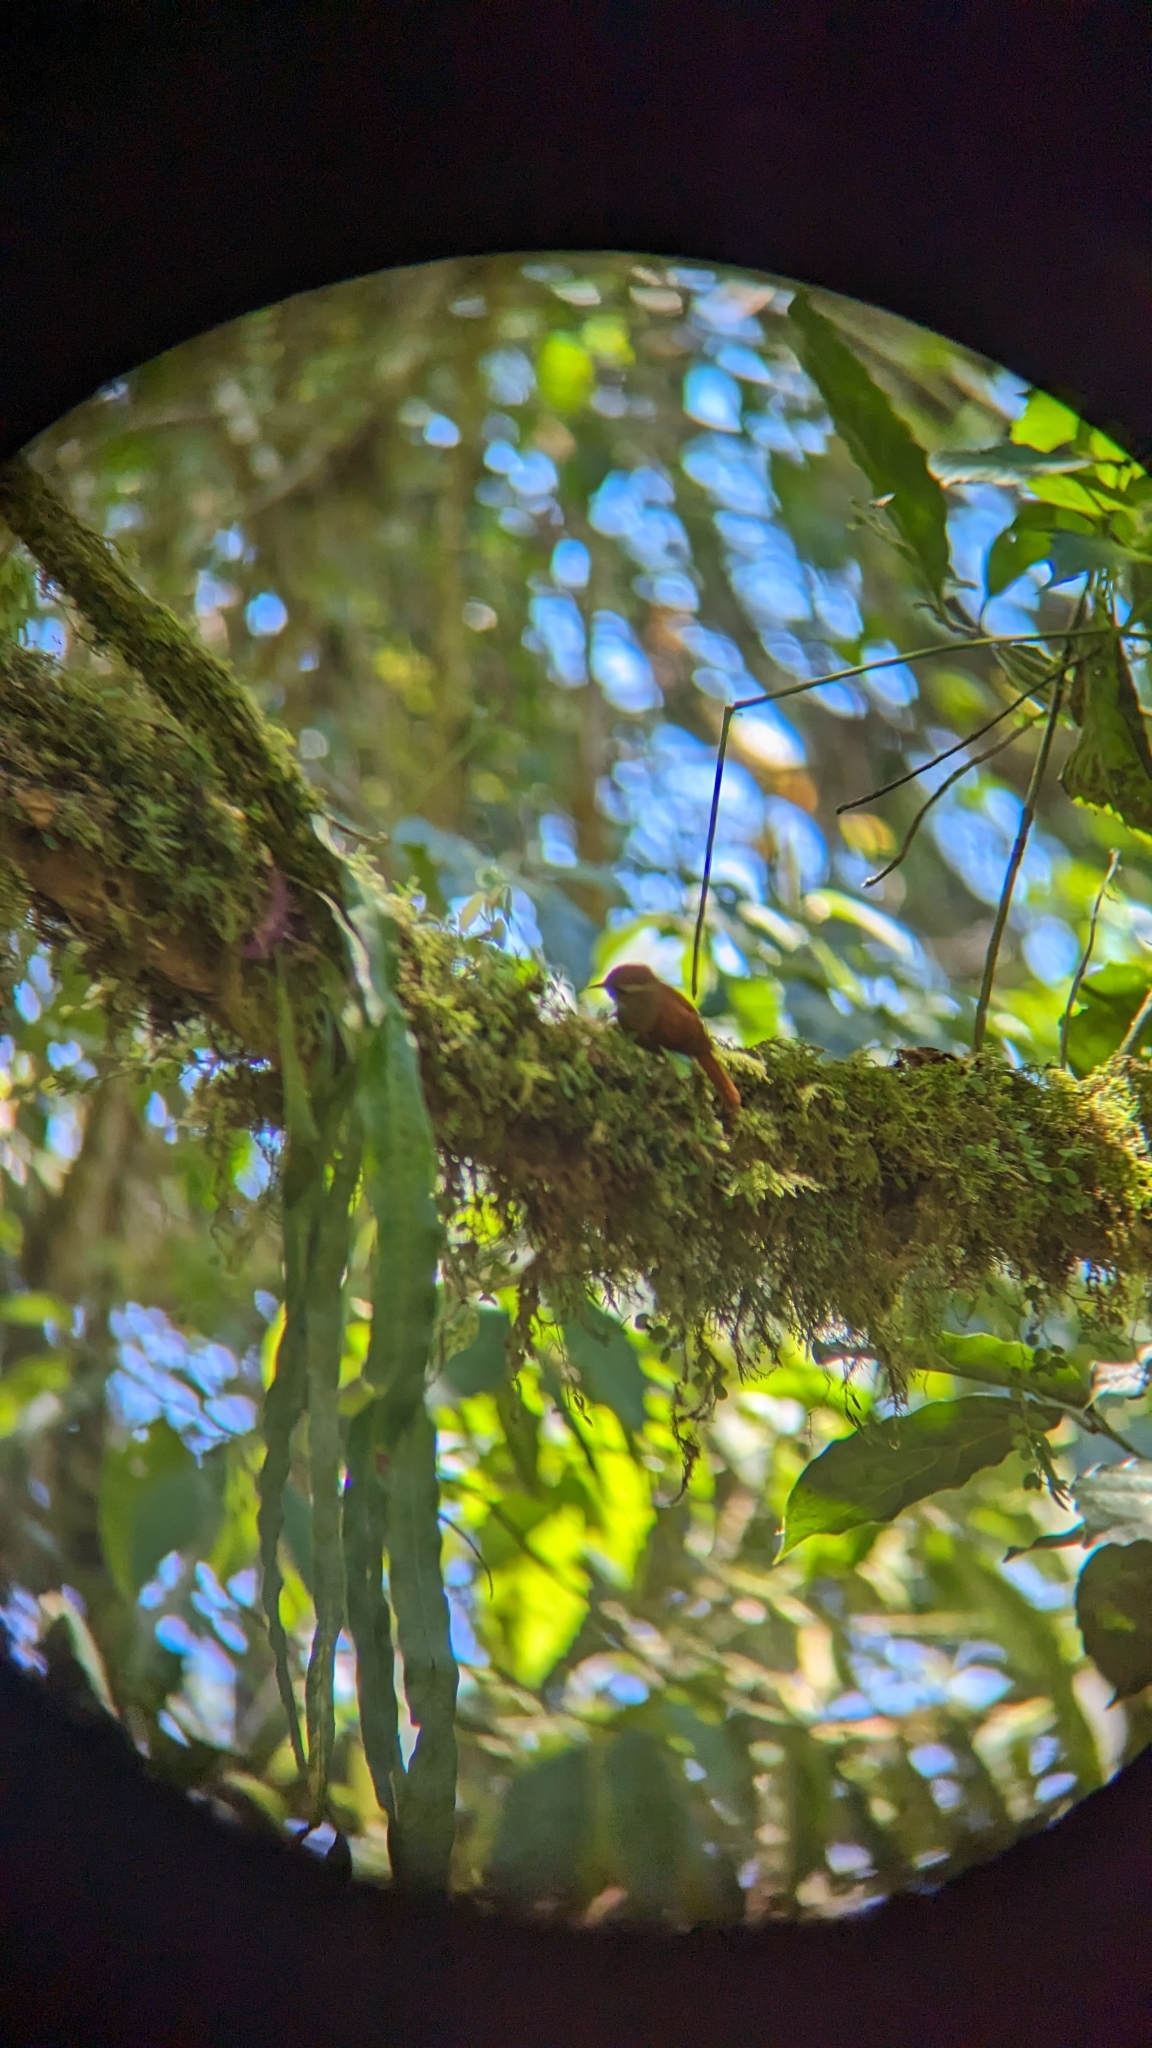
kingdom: Animalia
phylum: Chordata
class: Aves
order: Passeriformes
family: Furnariidae
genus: Margarornis
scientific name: Margarornis rubiginosus
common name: Ruddy treerunner
